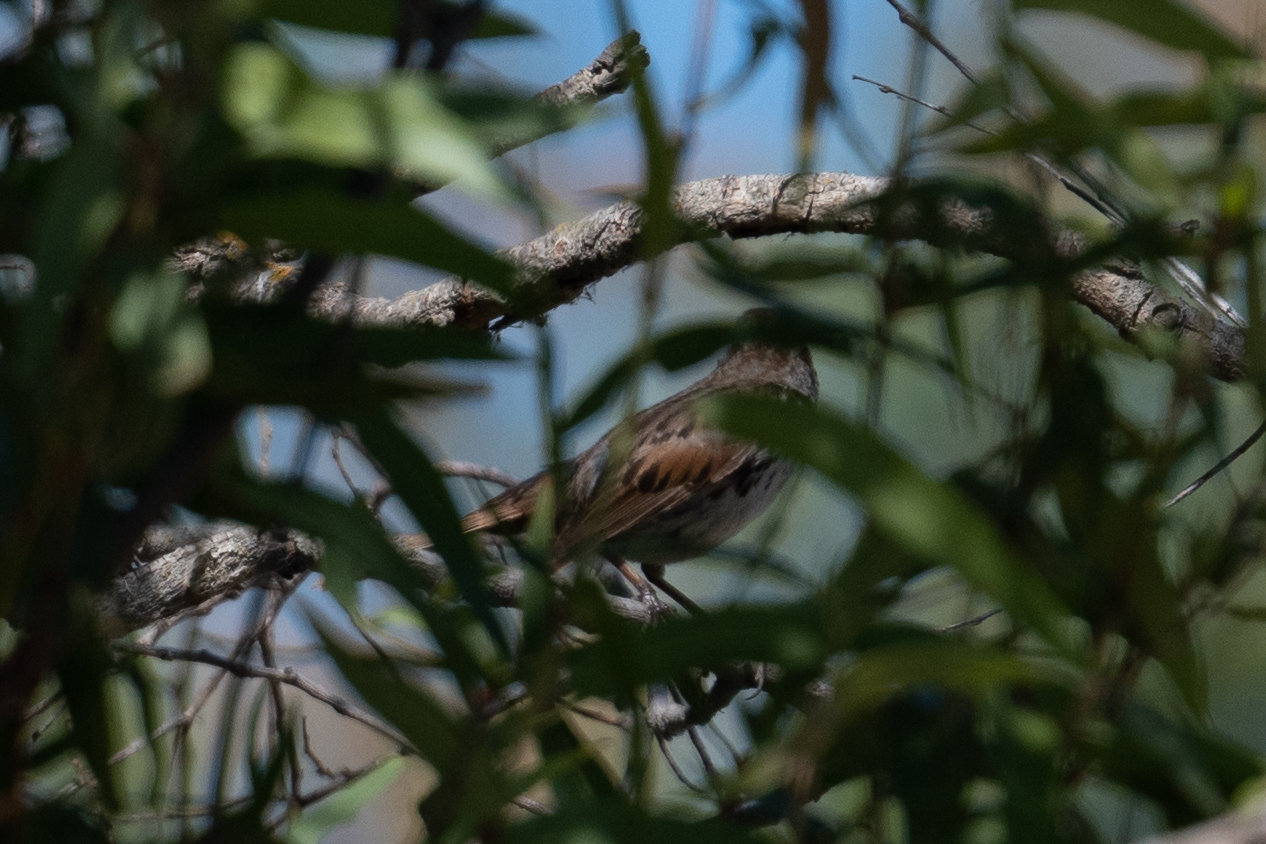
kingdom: Animalia
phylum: Chordata
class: Aves
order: Passeriformes
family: Passerellidae
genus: Melospiza
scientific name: Melospiza melodia
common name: Song sparrow
